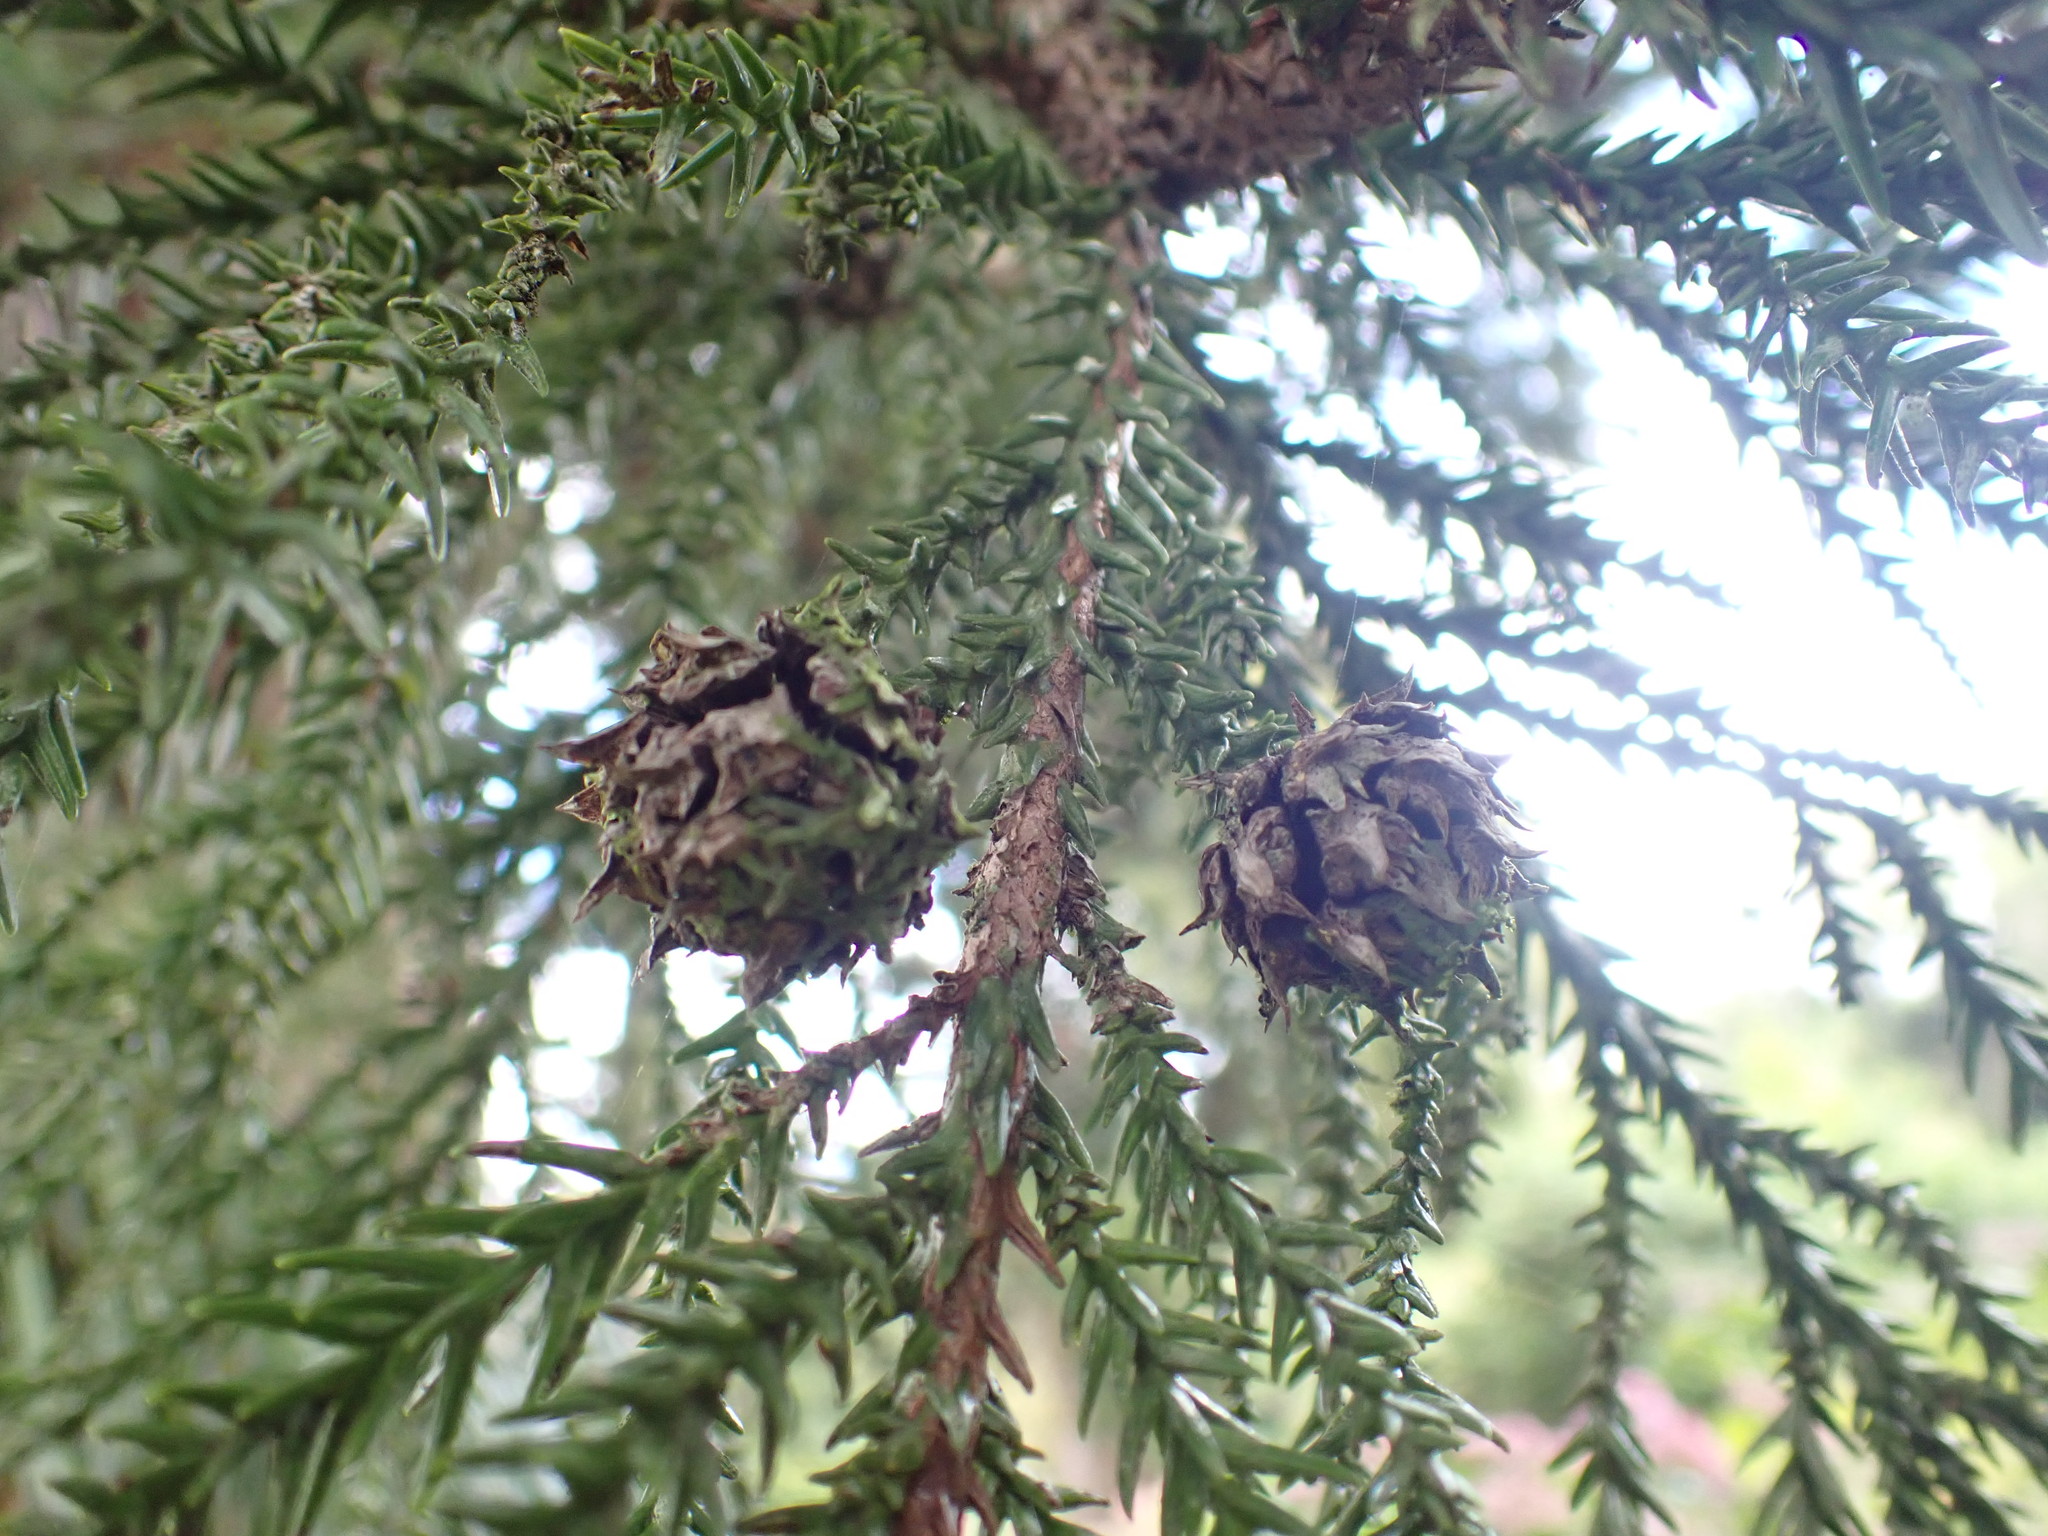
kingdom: Plantae
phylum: Tracheophyta
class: Pinopsida
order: Pinales
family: Cupressaceae
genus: Cryptomeria
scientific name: Cryptomeria japonica
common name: Japanese cedar
